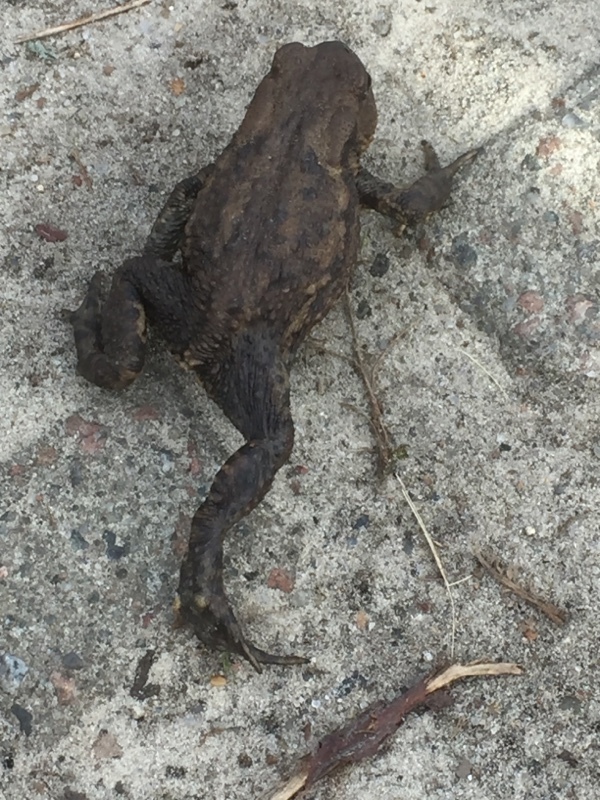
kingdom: Animalia
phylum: Chordata
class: Amphibia
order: Anura
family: Bufonidae
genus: Bufo
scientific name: Bufo bufo
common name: Common toad
